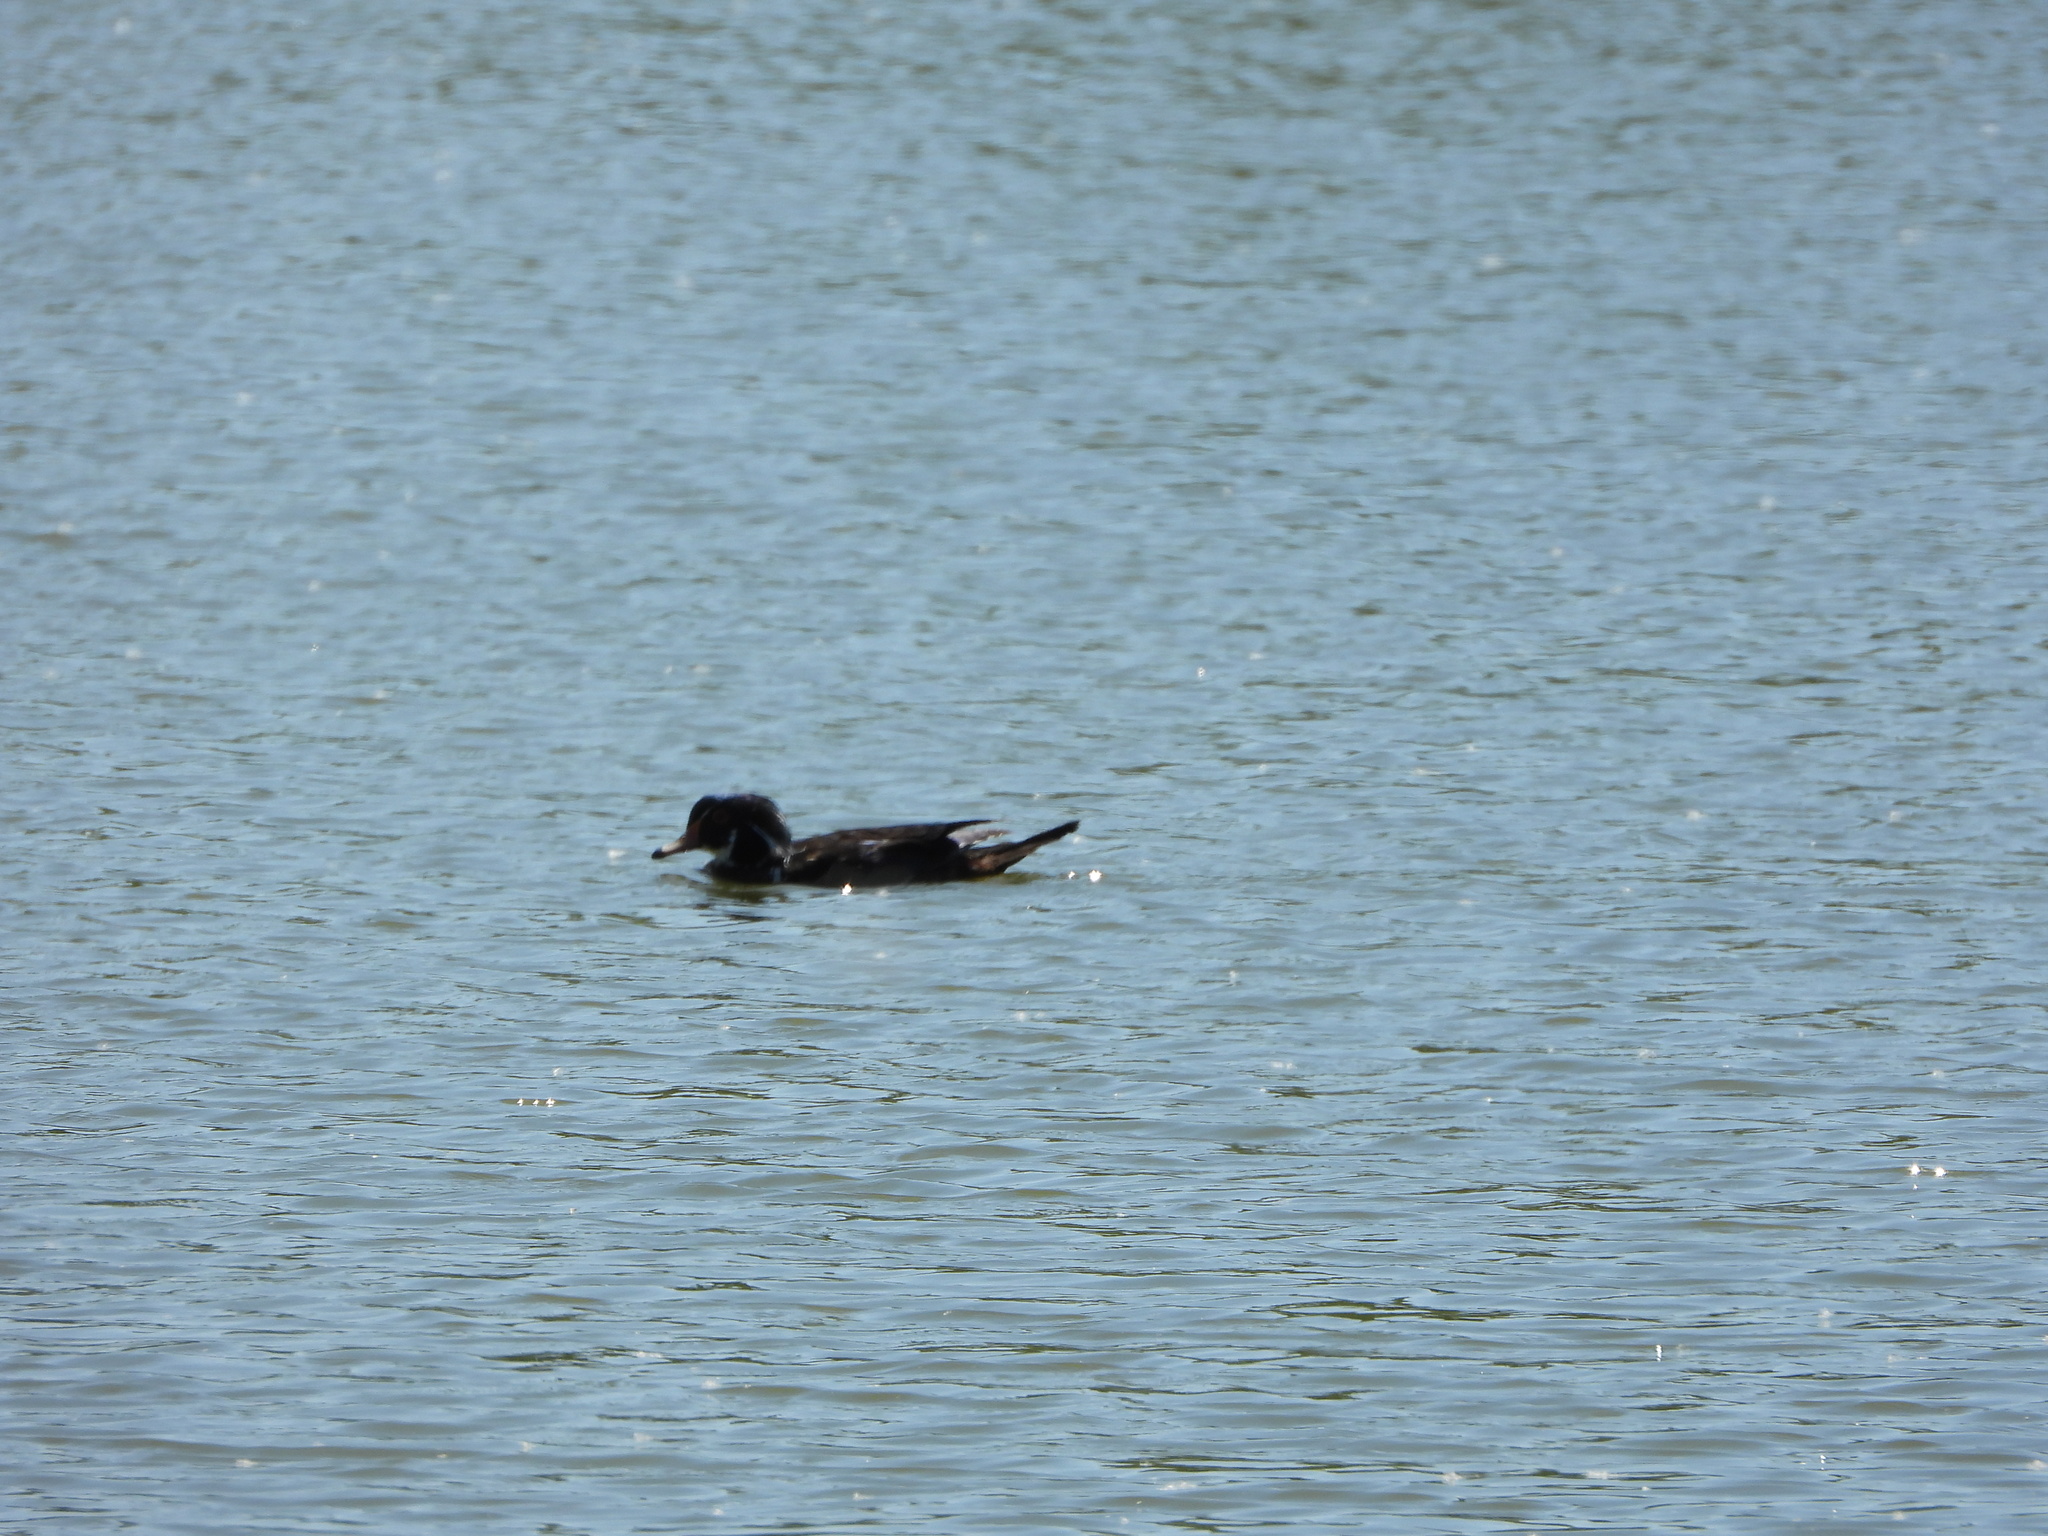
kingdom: Animalia
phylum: Chordata
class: Aves
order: Anseriformes
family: Anatidae
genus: Aix
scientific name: Aix sponsa
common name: Wood duck
